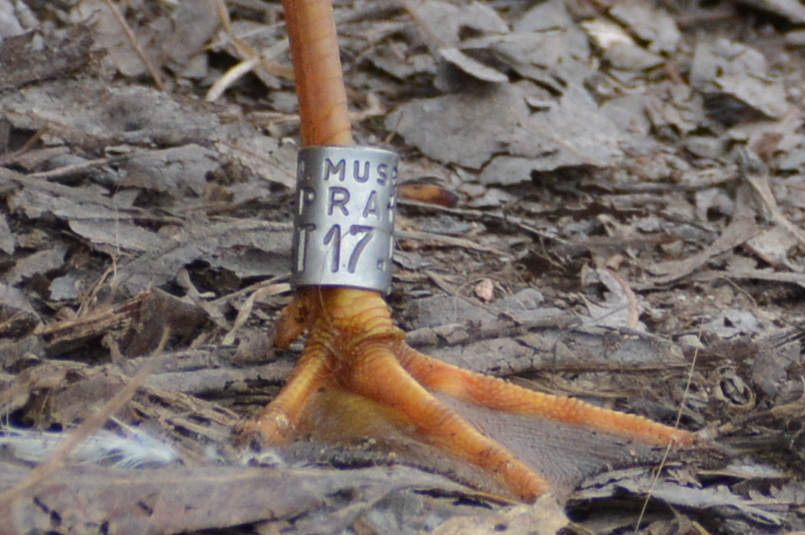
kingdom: Animalia
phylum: Chordata
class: Aves
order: Charadriiformes
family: Laridae
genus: Chroicocephalus
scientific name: Chroicocephalus ridibundus
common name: Black-headed gull
